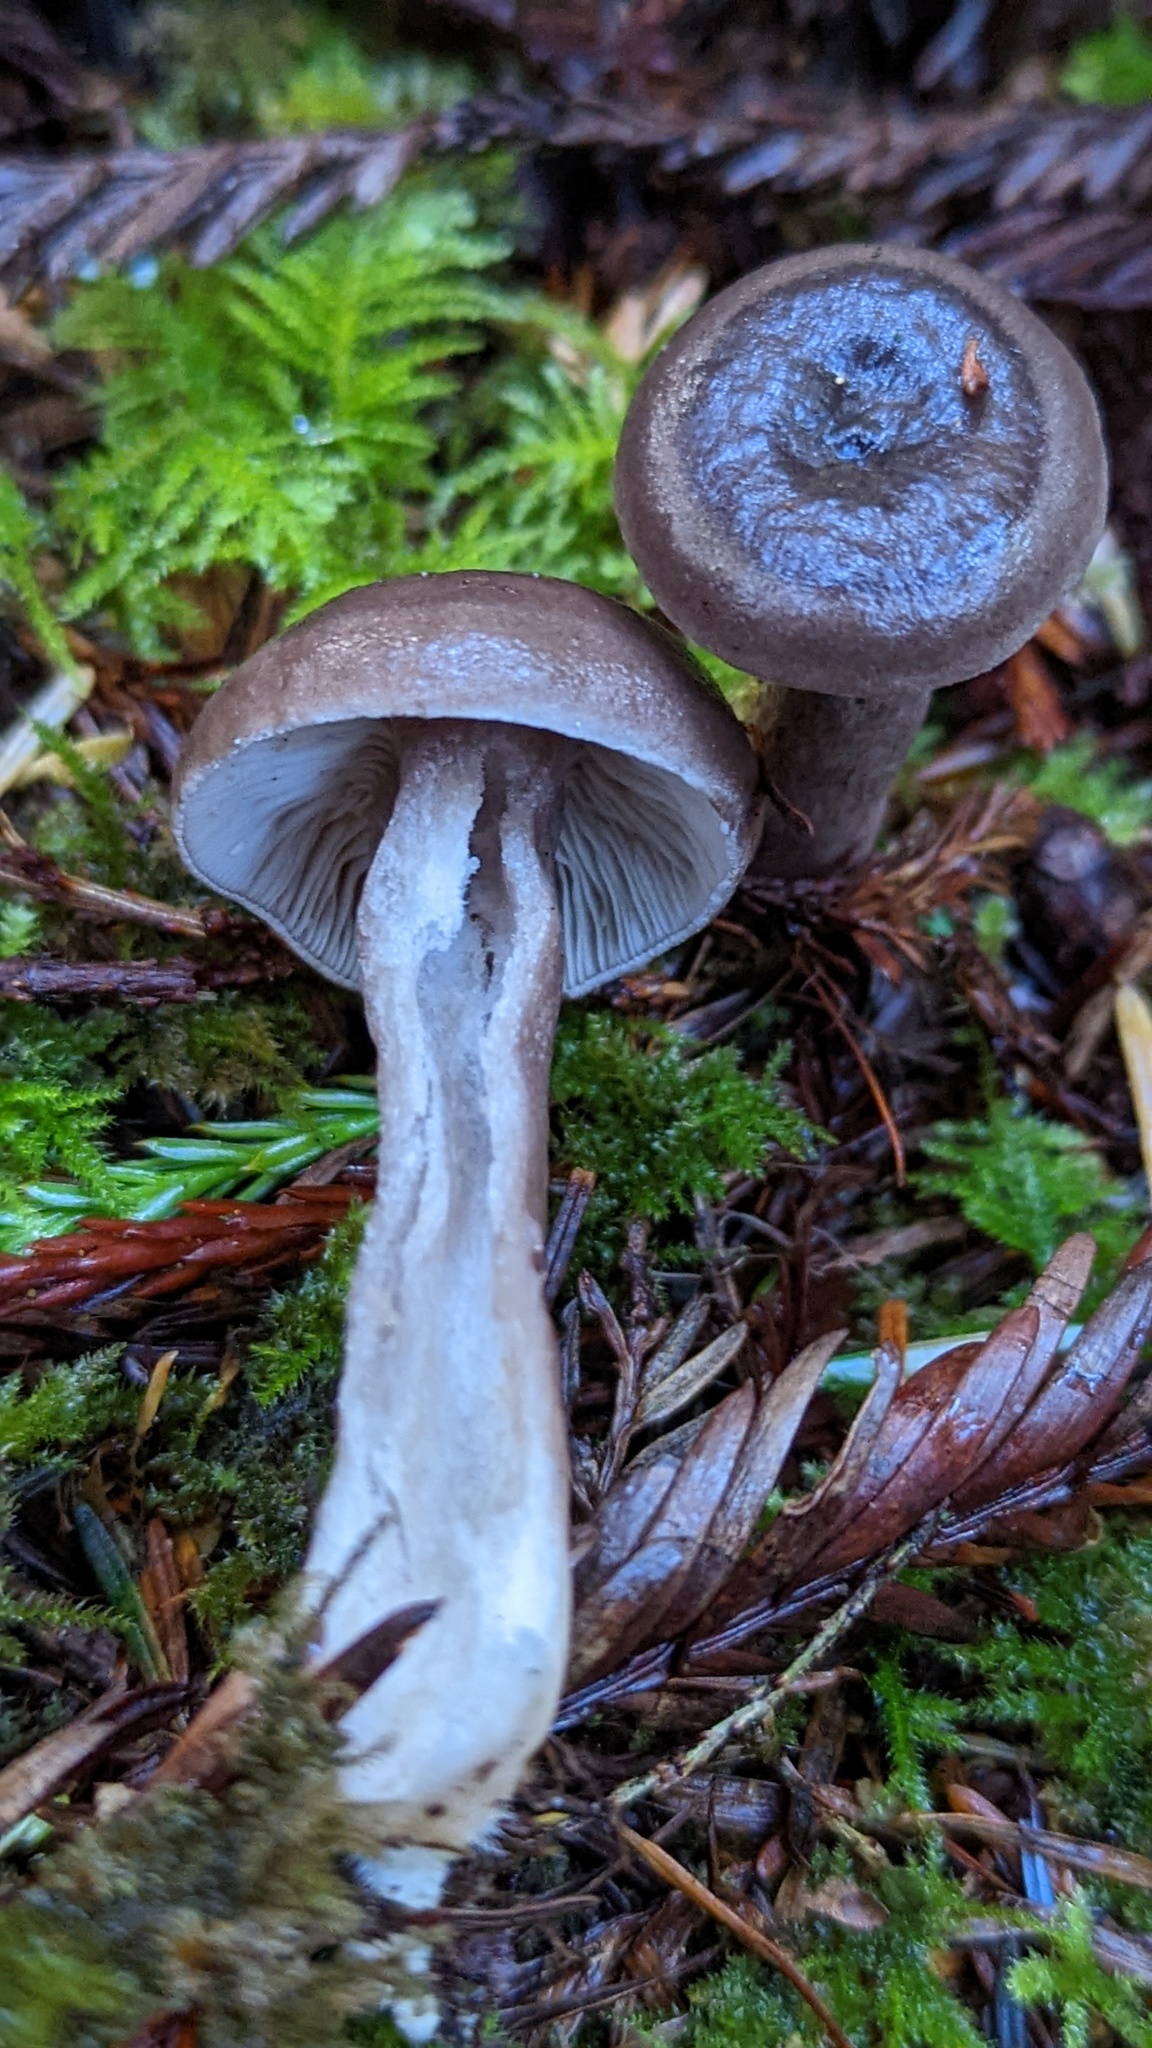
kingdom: Fungi
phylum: Basidiomycota
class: Agaricomycetes
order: Russulales
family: Russulaceae
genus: Lactarius
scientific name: Lactarius pseudomucidus
